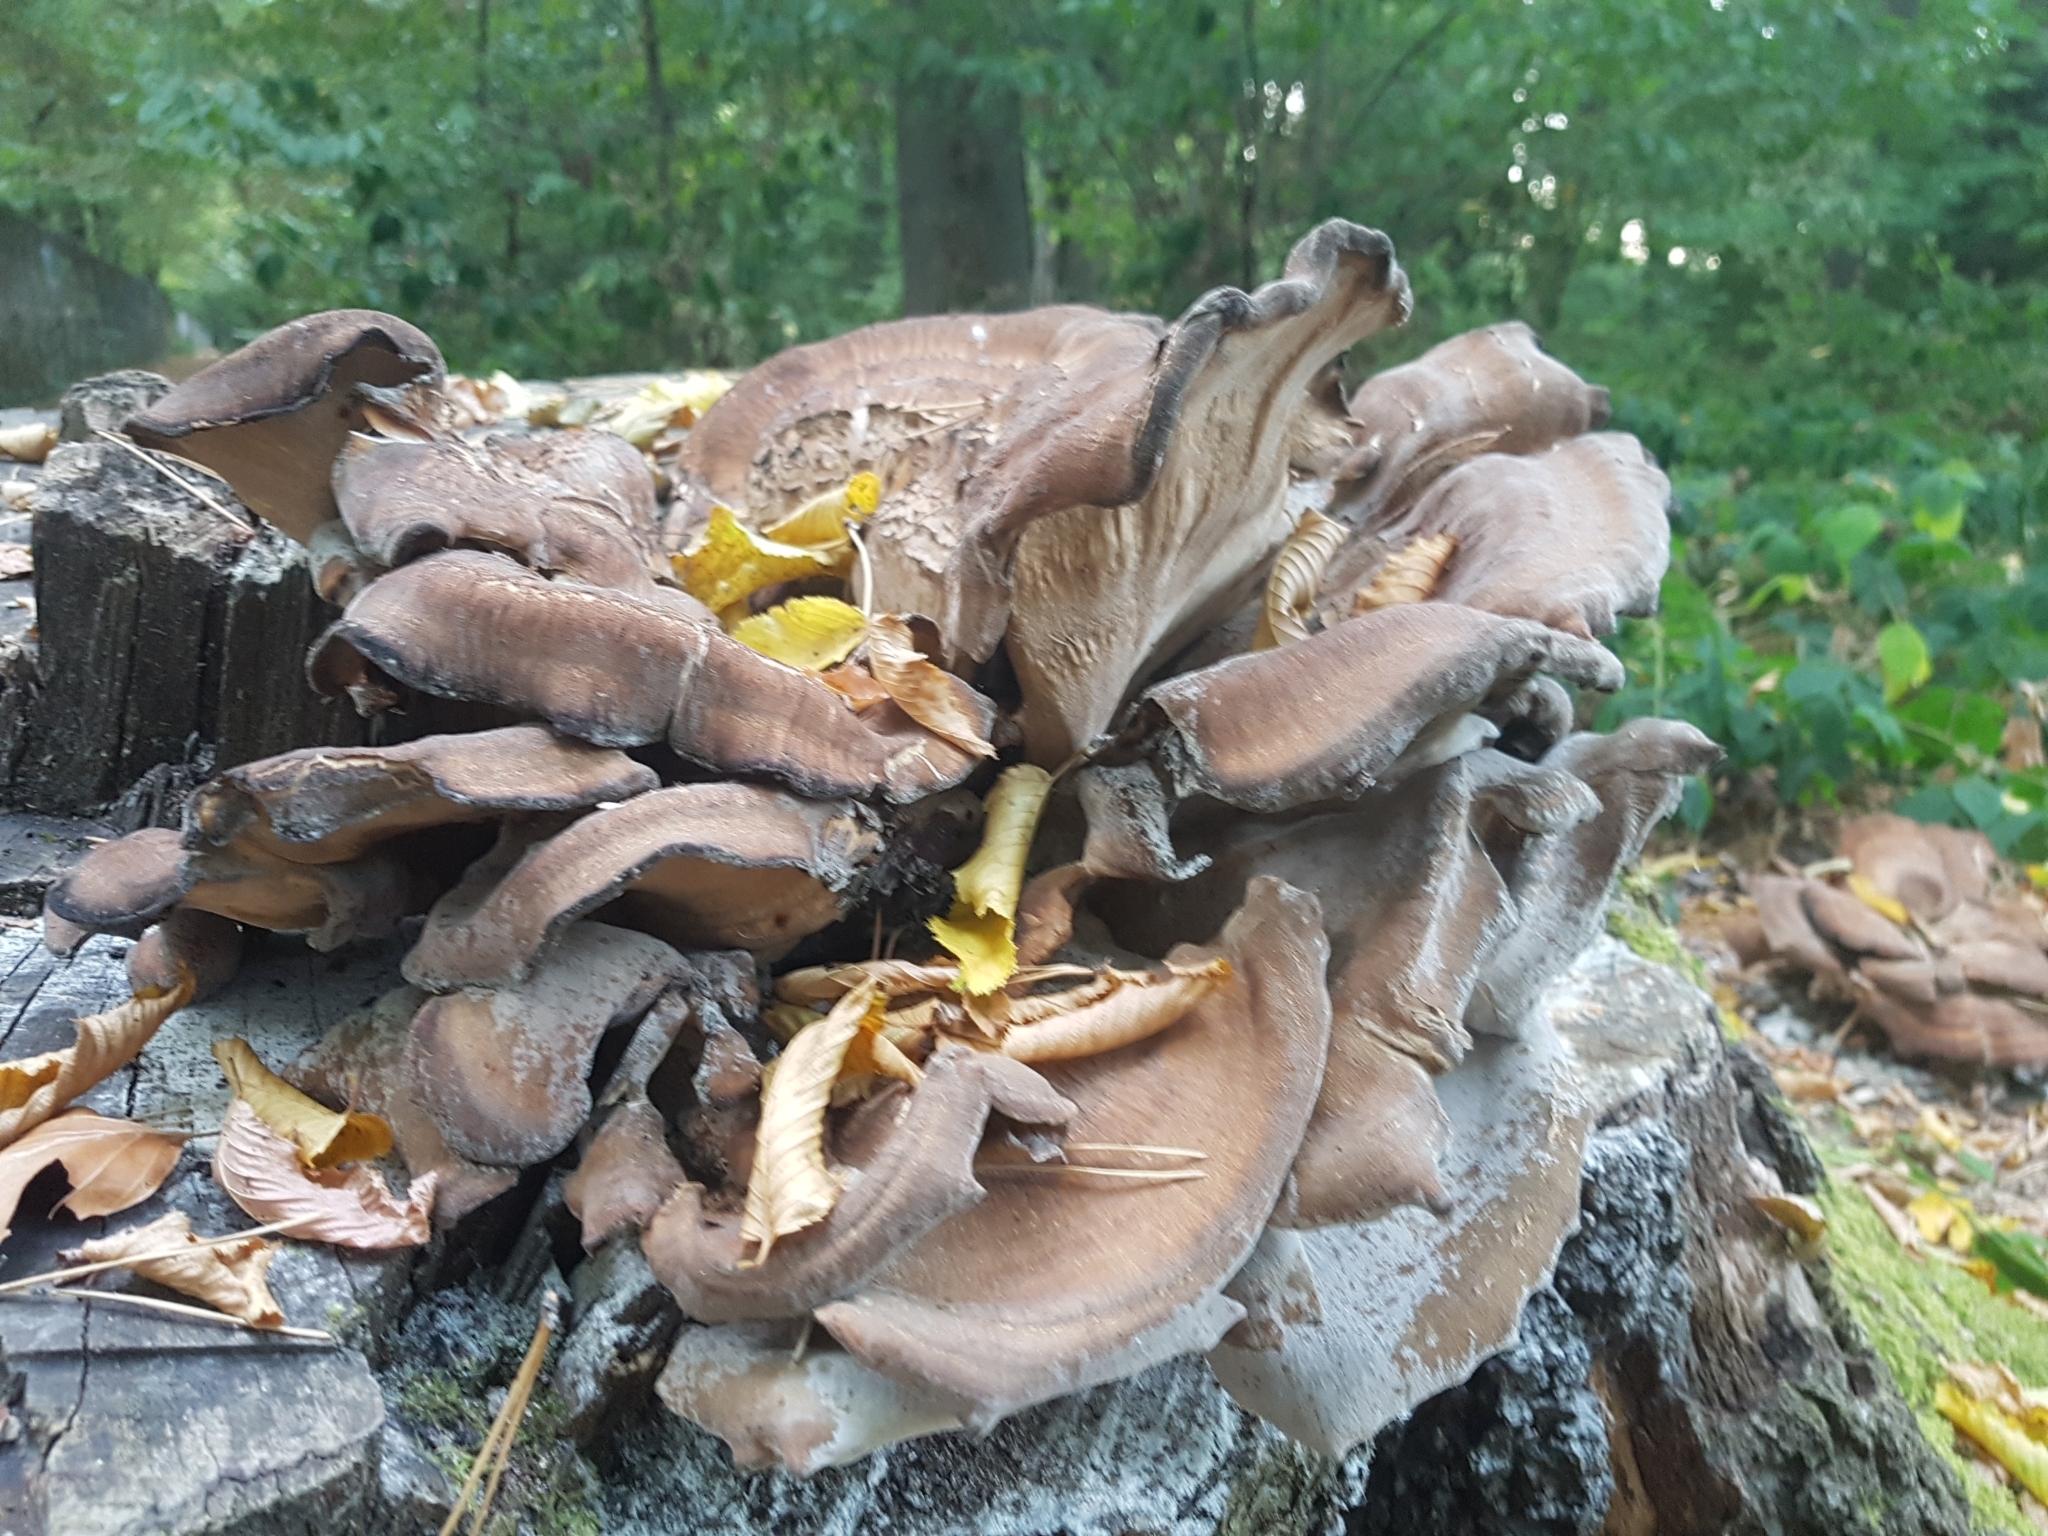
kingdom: Fungi
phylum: Basidiomycota
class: Agaricomycetes
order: Polyporales
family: Meripilaceae
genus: Meripilus
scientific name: Meripilus giganteus
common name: Giant polypore
